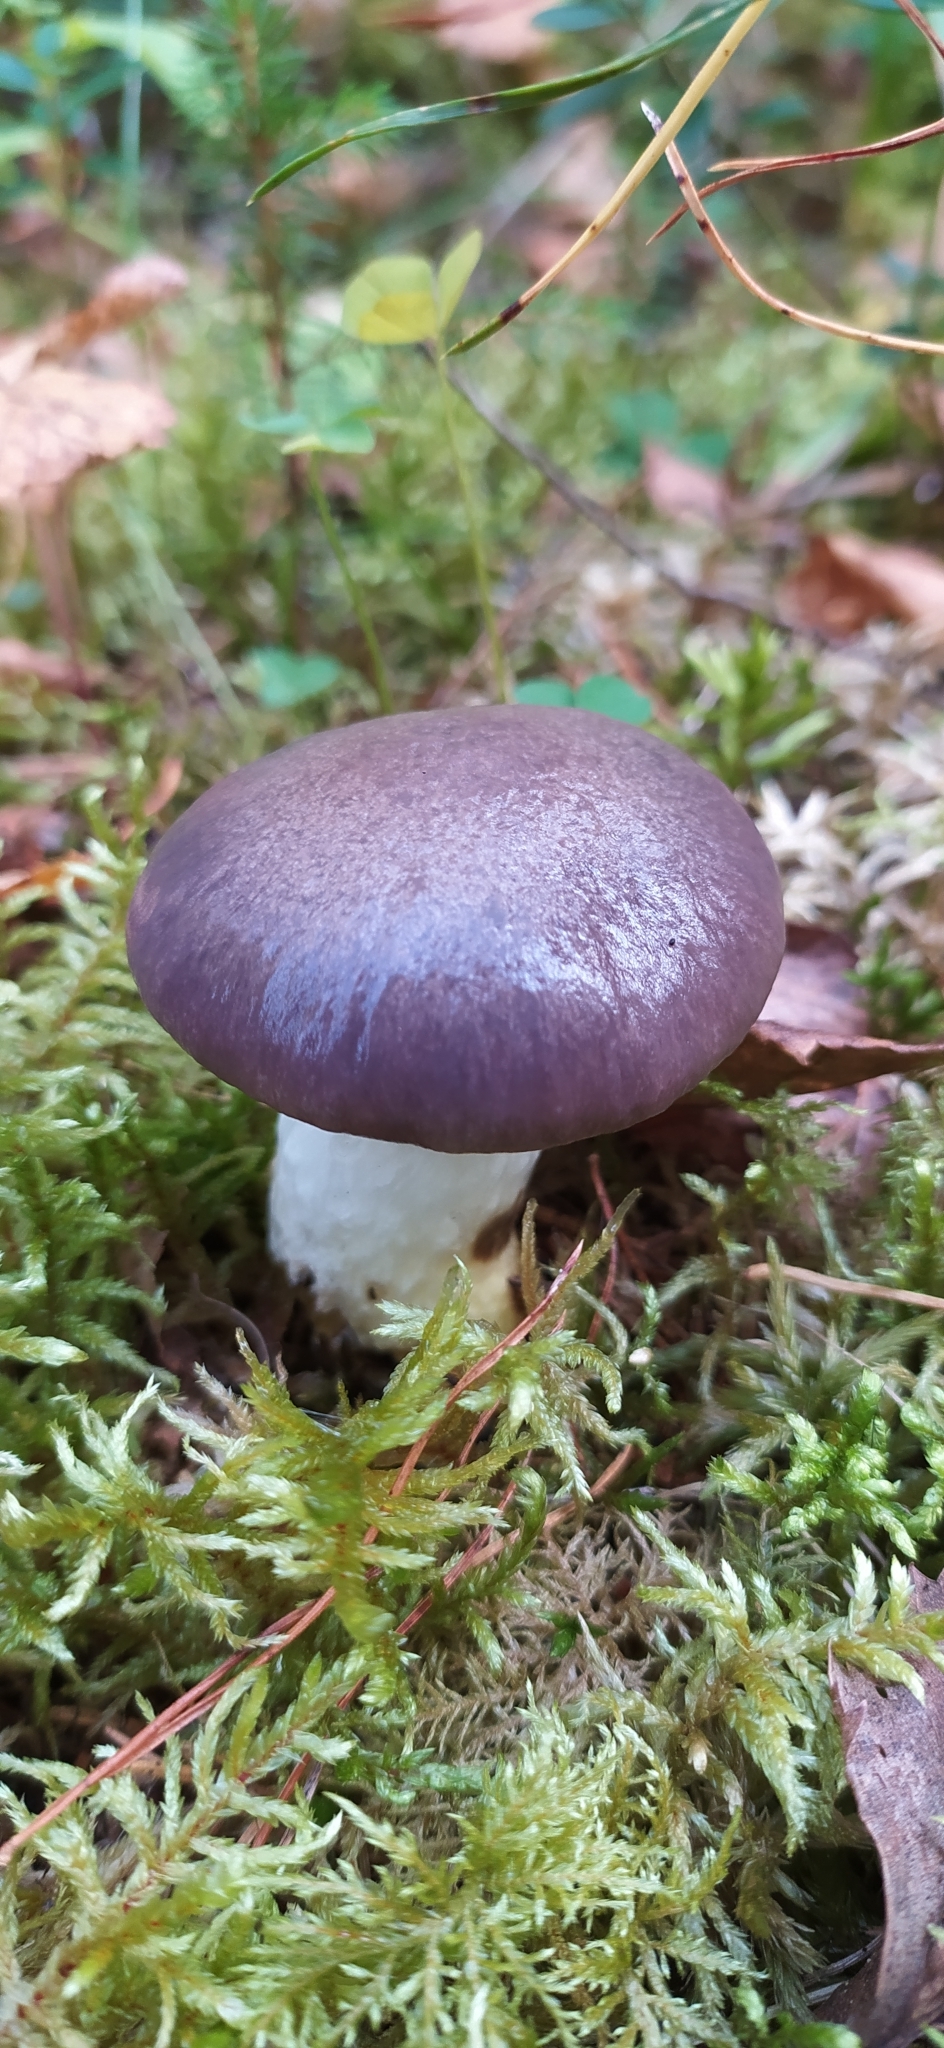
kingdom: Fungi
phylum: Basidiomycota
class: Agaricomycetes
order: Boletales
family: Gomphidiaceae
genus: Gomphidius
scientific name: Gomphidius glutinosus
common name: Slimy spike
